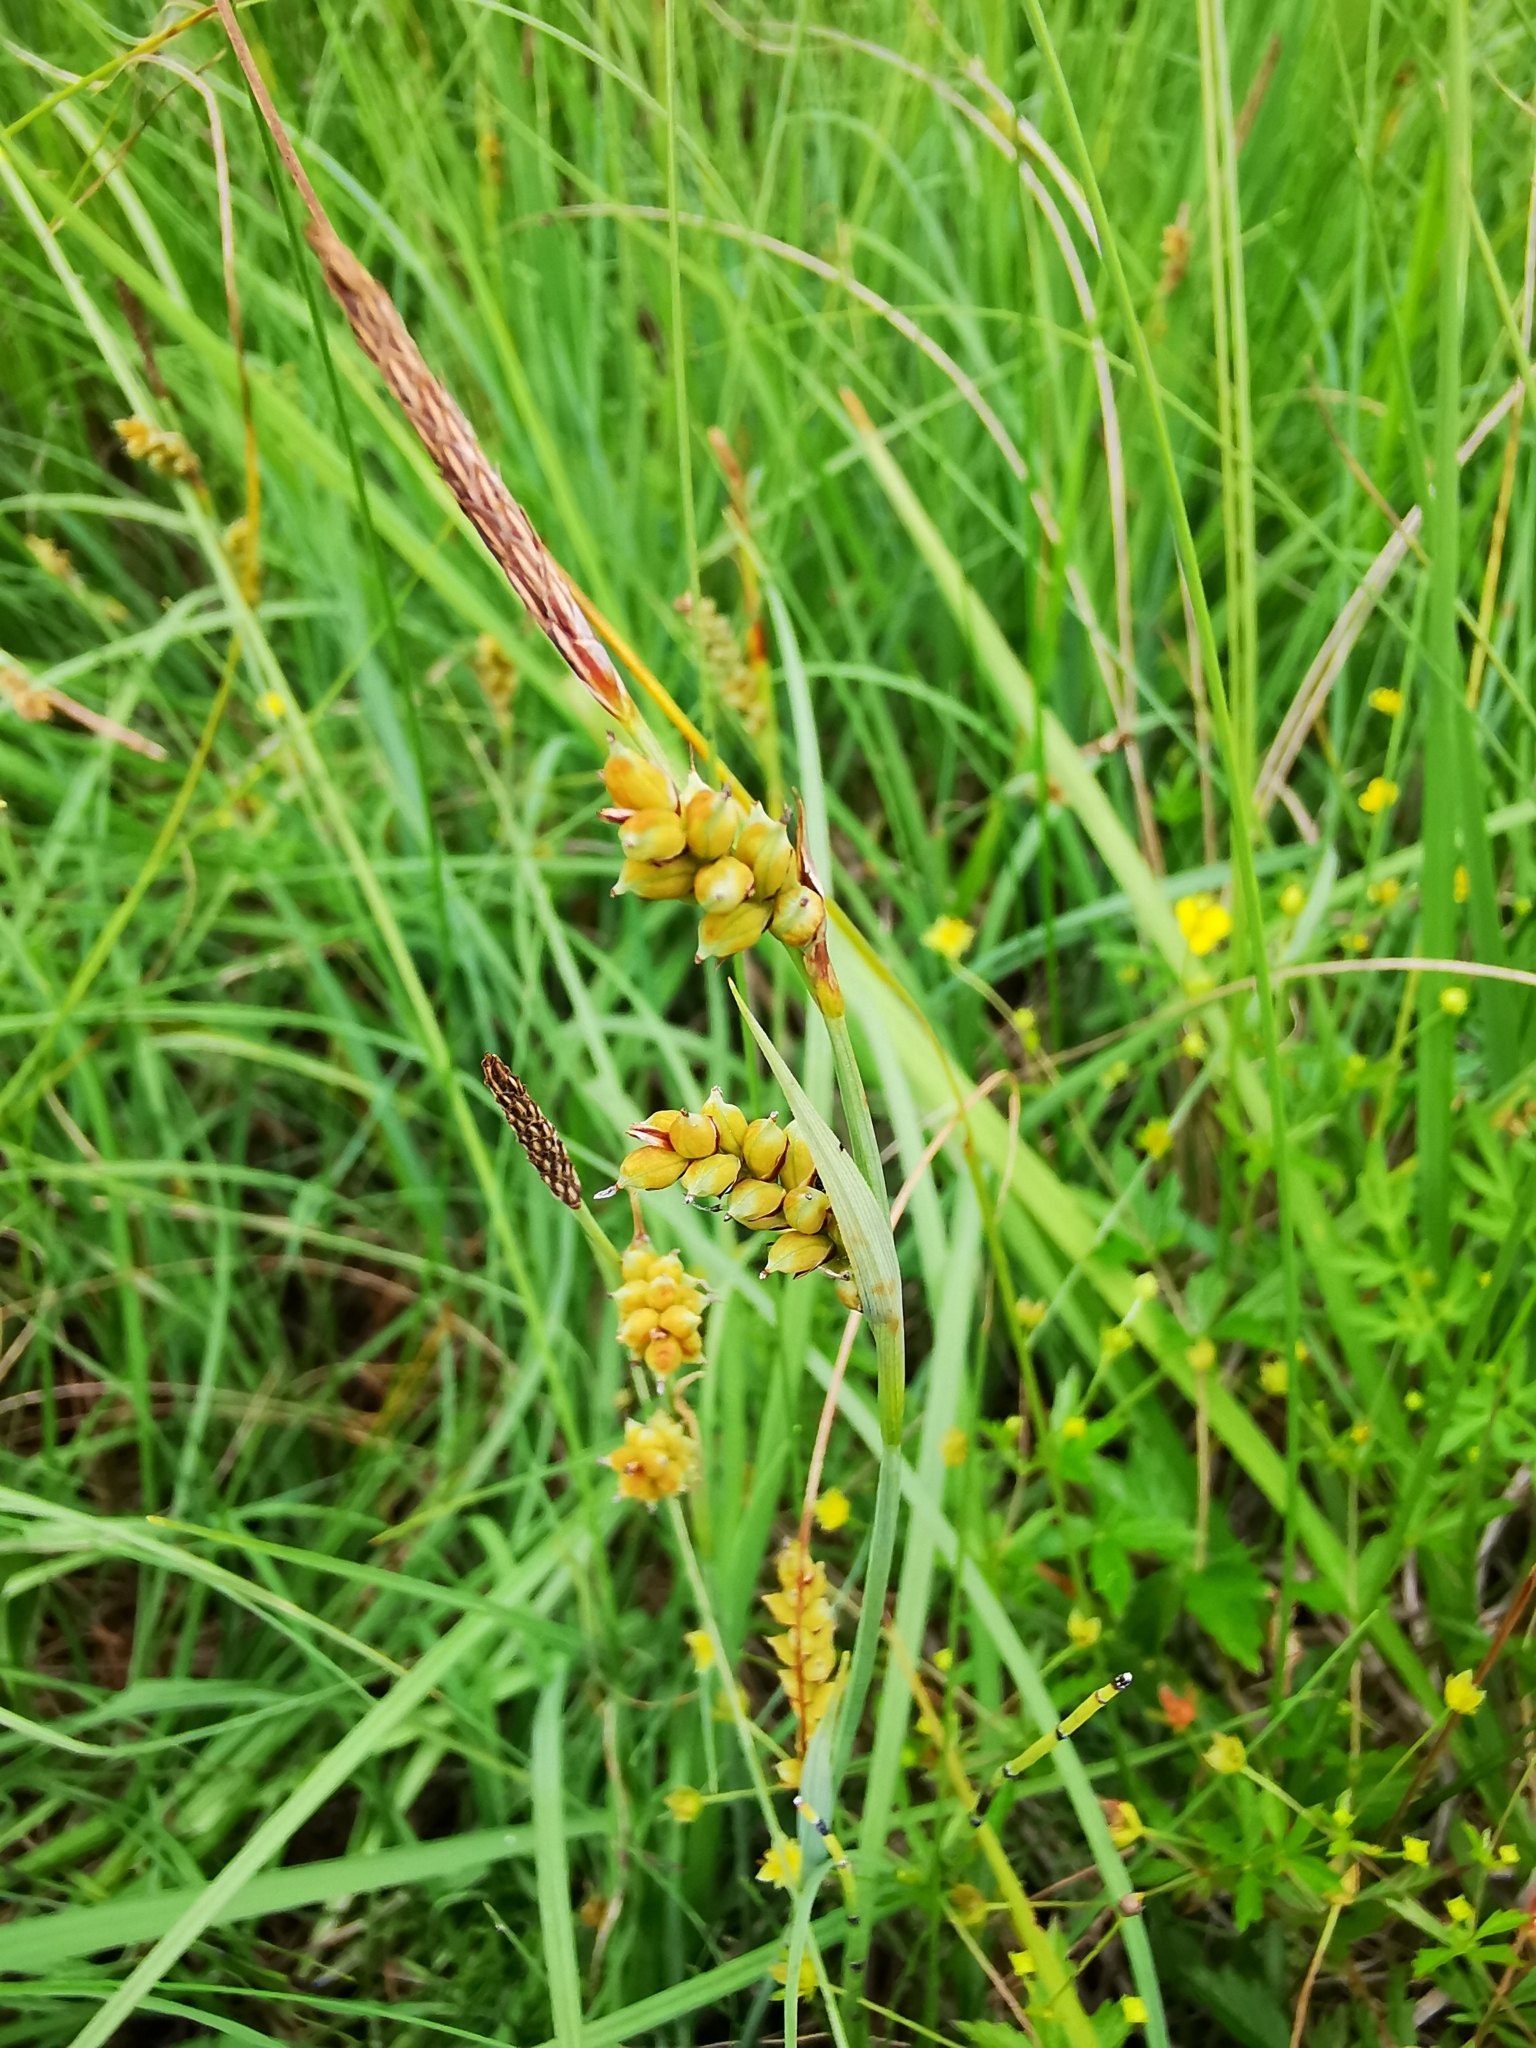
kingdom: Plantae
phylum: Tracheophyta
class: Liliopsida
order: Poales
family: Cyperaceae
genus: Carex
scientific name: Carex panicea
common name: Carnation sedge
